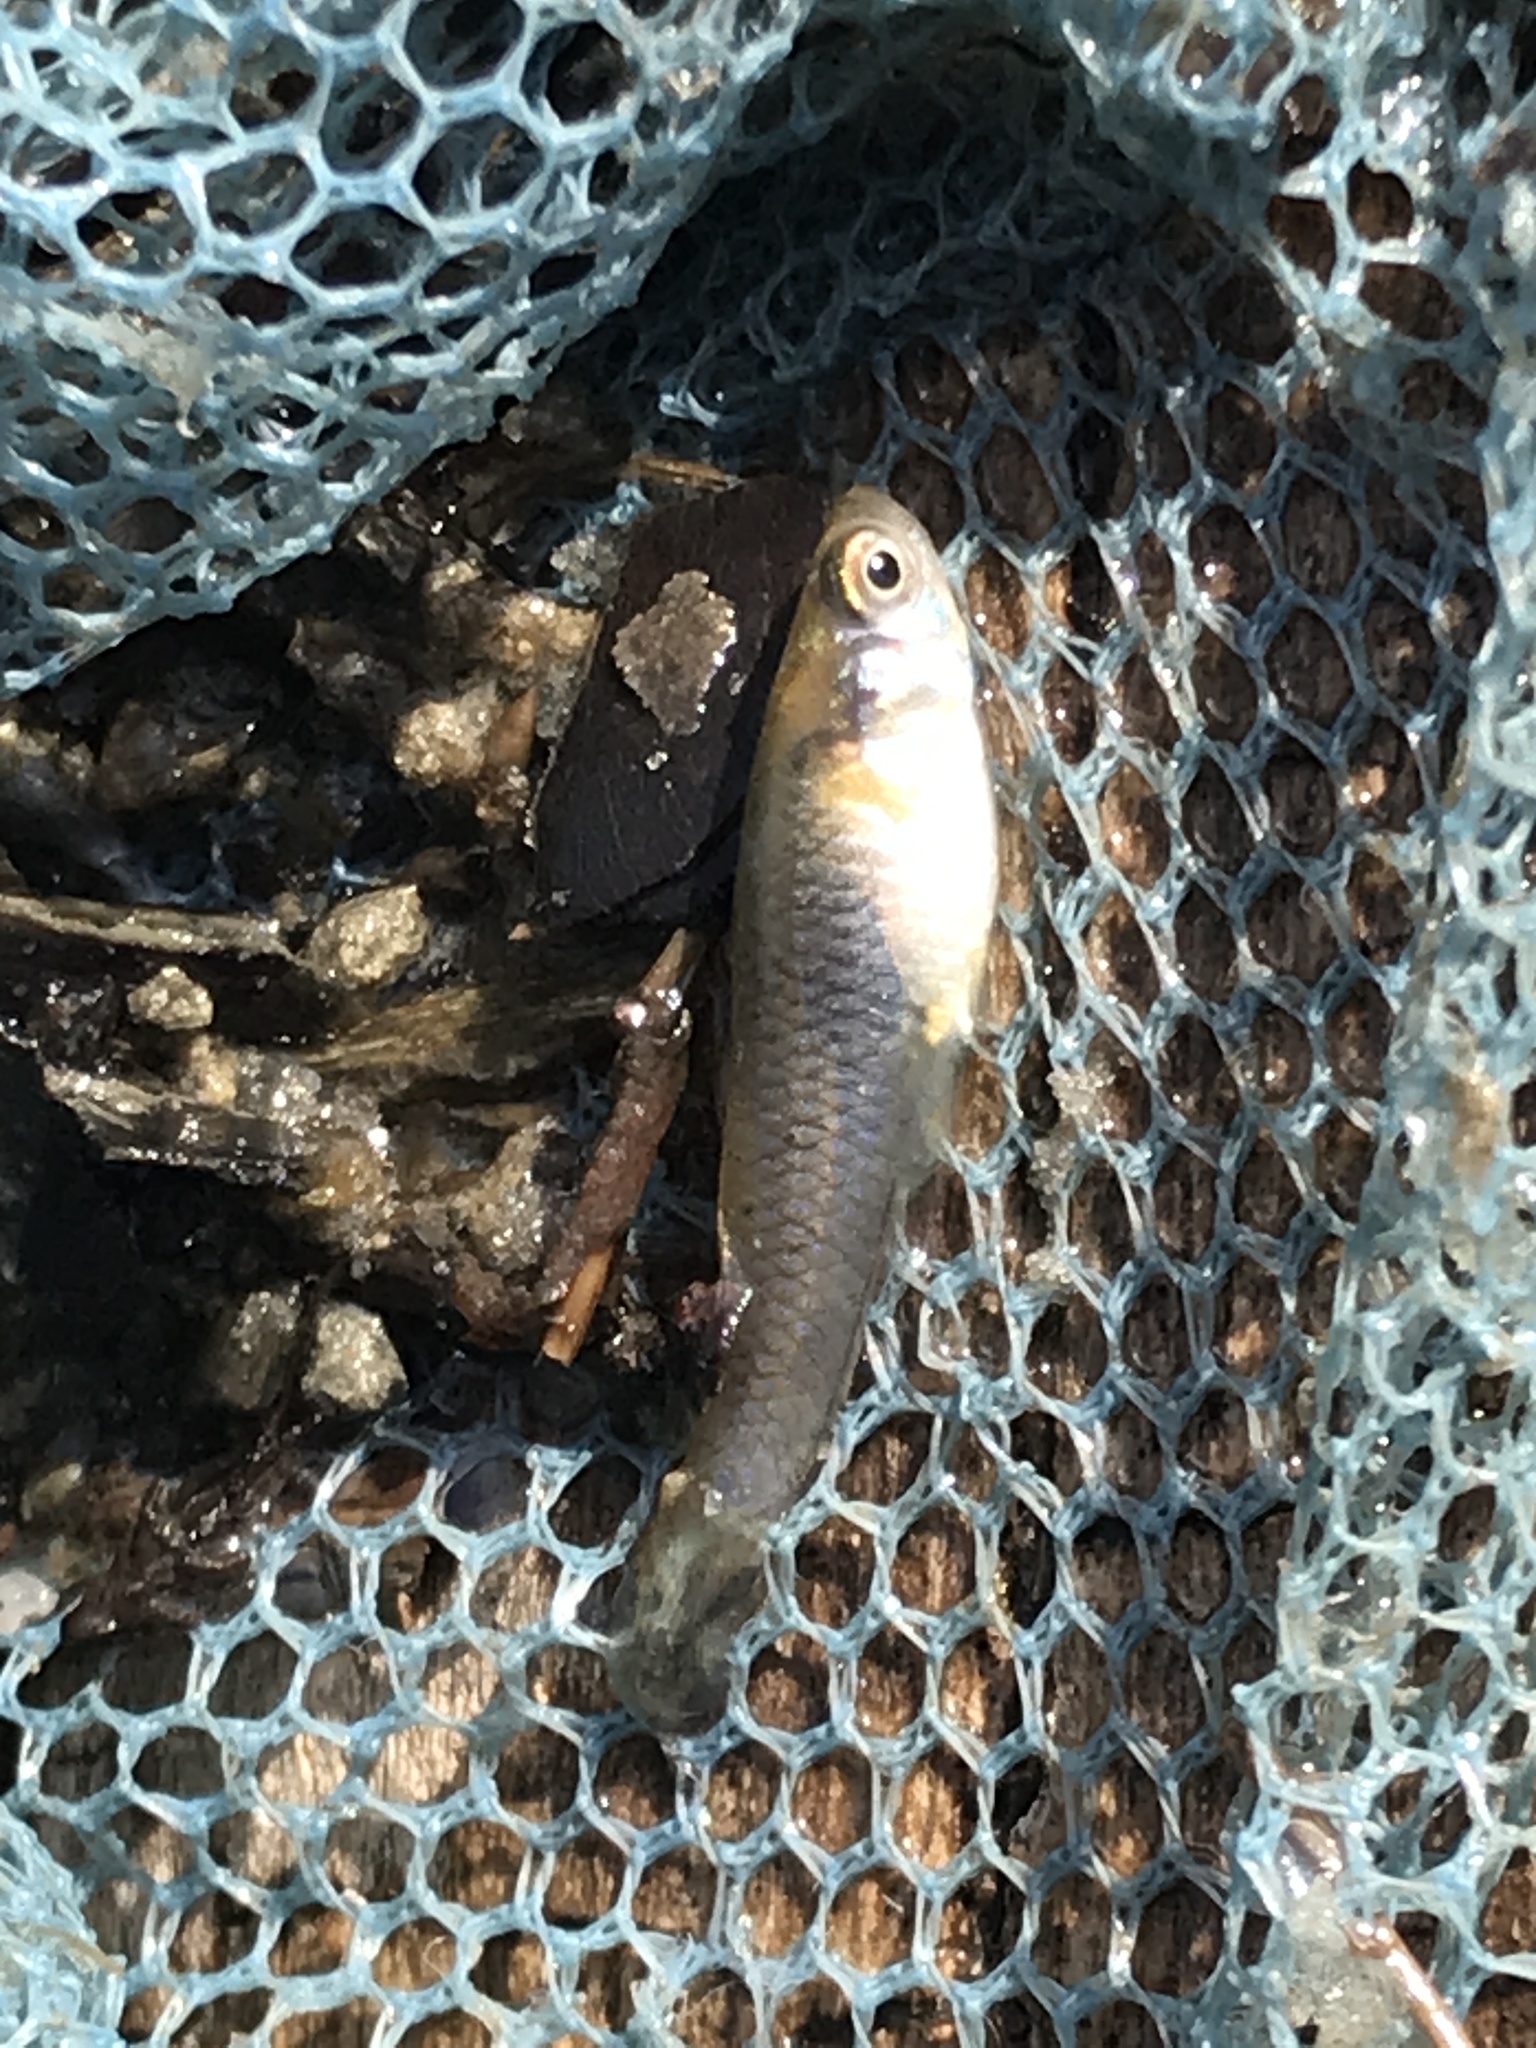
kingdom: Animalia
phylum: Chordata
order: Cyprinodontiformes
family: Poeciliidae
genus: Gambusia
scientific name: Gambusia affinis
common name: Mosquitofish
